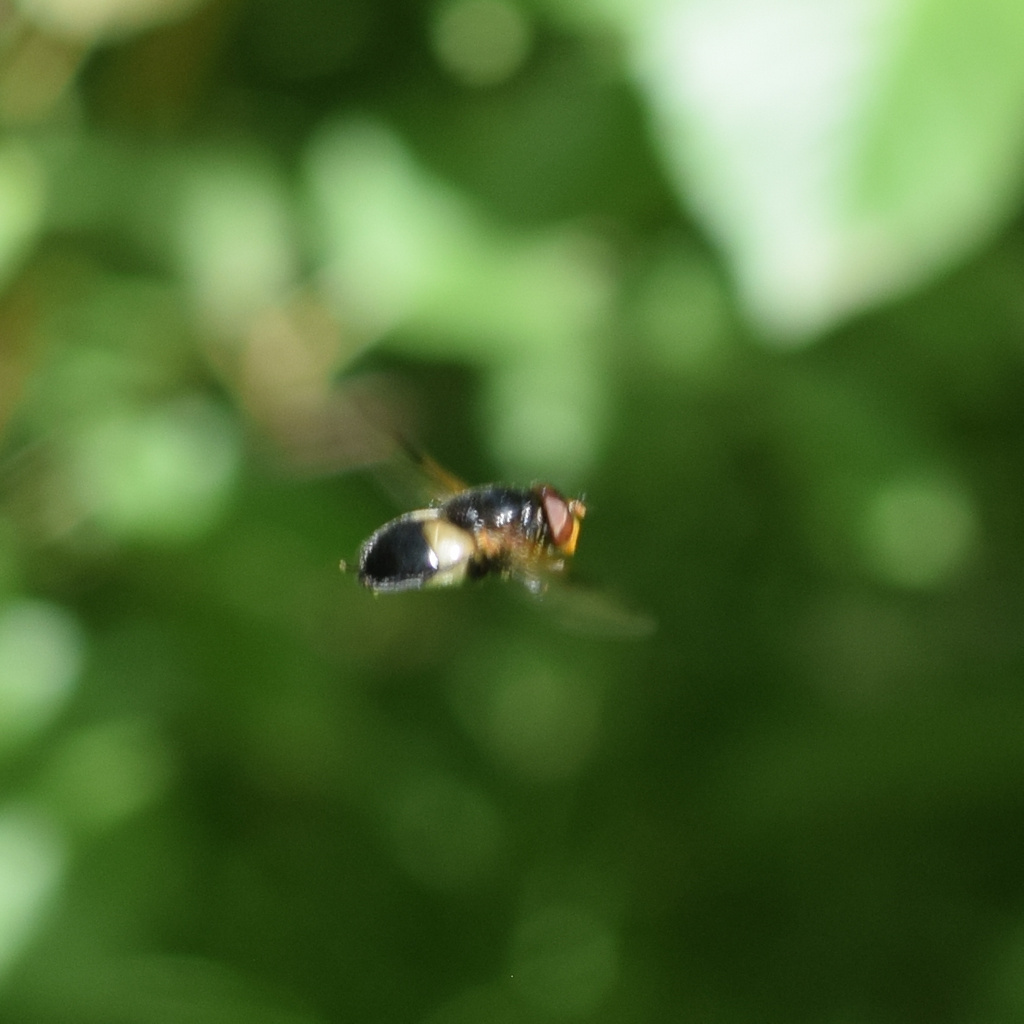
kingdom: Animalia
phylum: Arthropoda
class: Insecta
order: Diptera
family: Syrphidae
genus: Volucella
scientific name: Volucella pellucens
